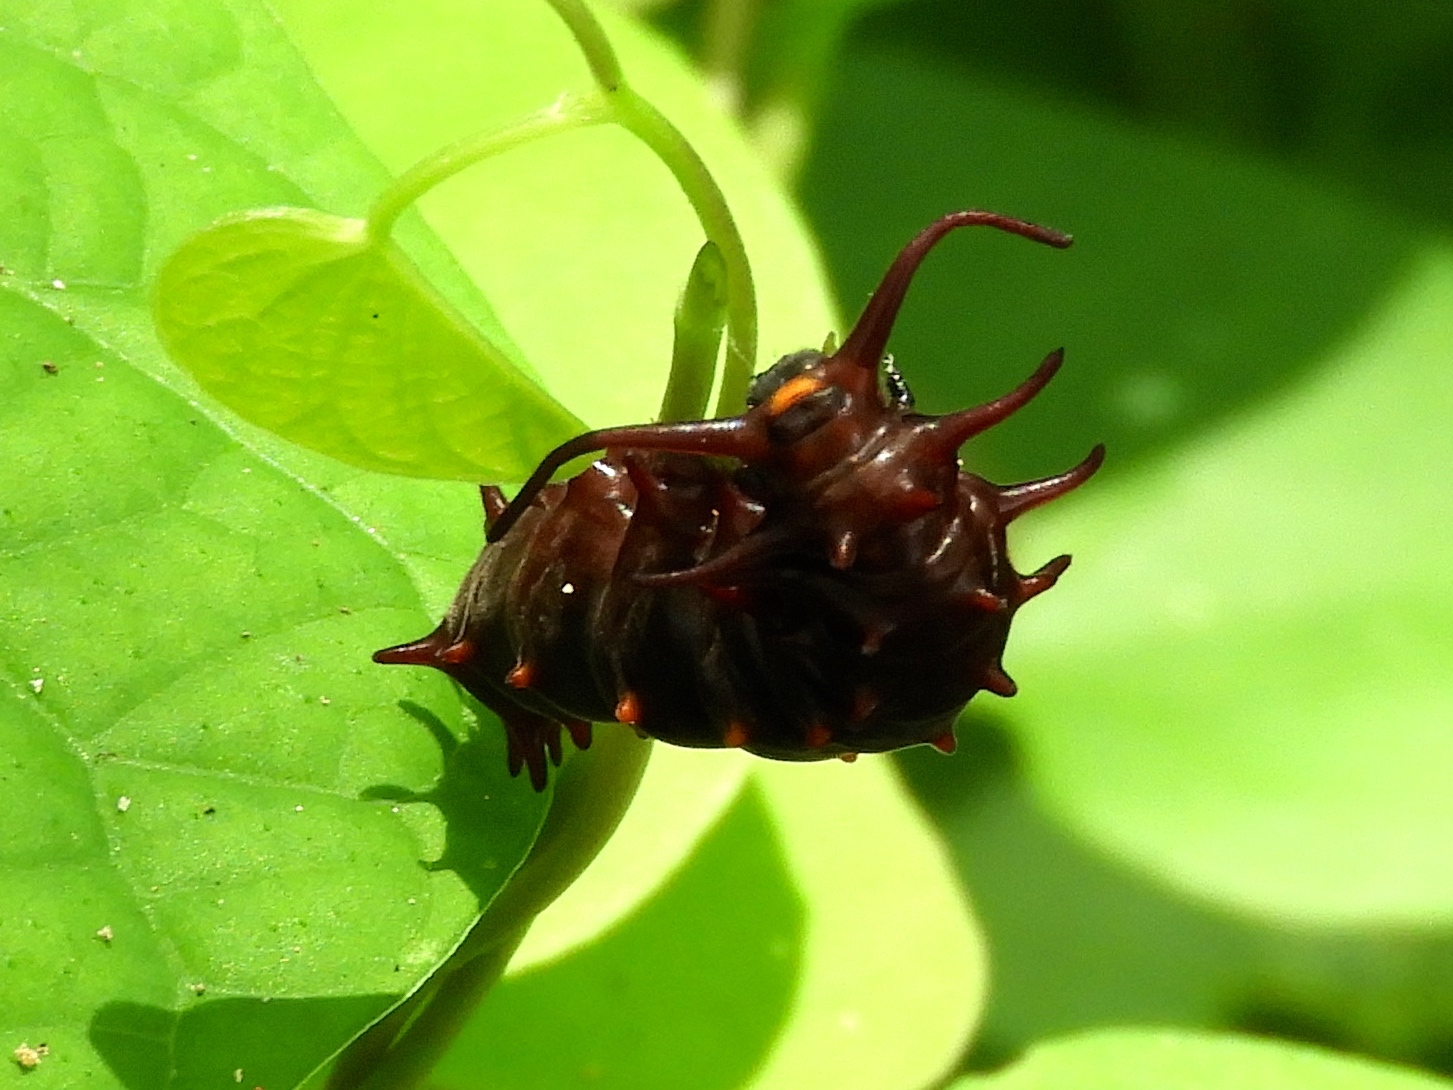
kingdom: Animalia
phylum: Arthropoda
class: Insecta
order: Lepidoptera
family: Papilionidae
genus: Battus
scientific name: Battus philenor
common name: Pipevine swallowtail
